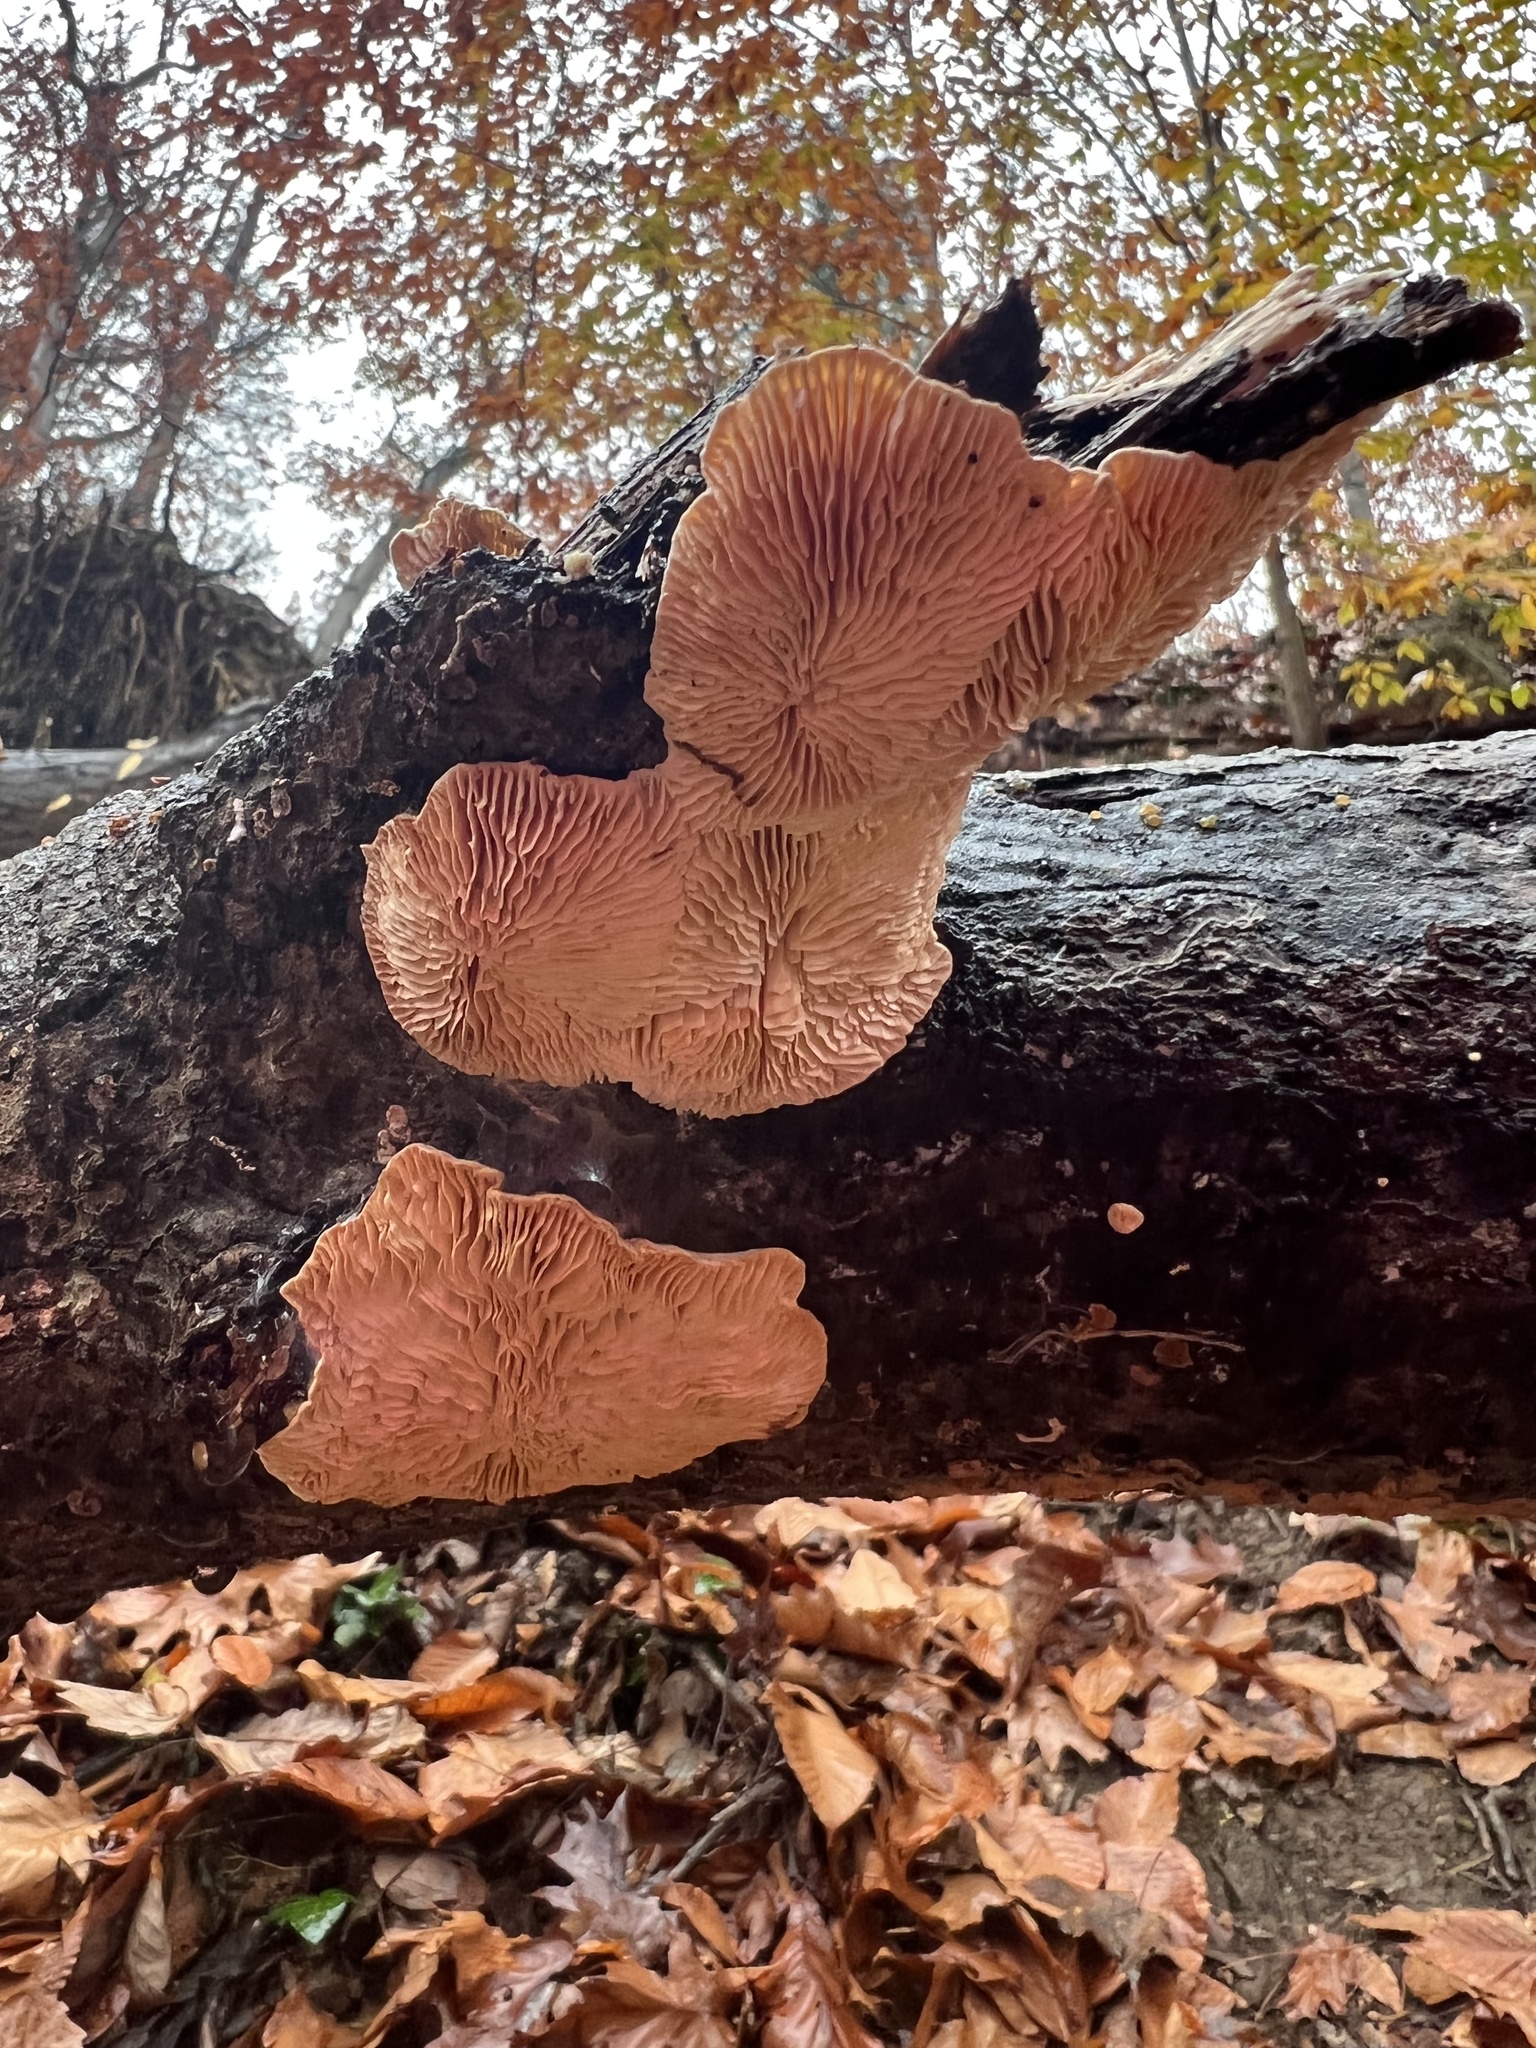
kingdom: Fungi
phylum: Basidiomycota
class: Agaricomycetes
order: Polyporales
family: Polyporaceae
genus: Lenzites
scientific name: Lenzites betulinus
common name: Birch mazegill
